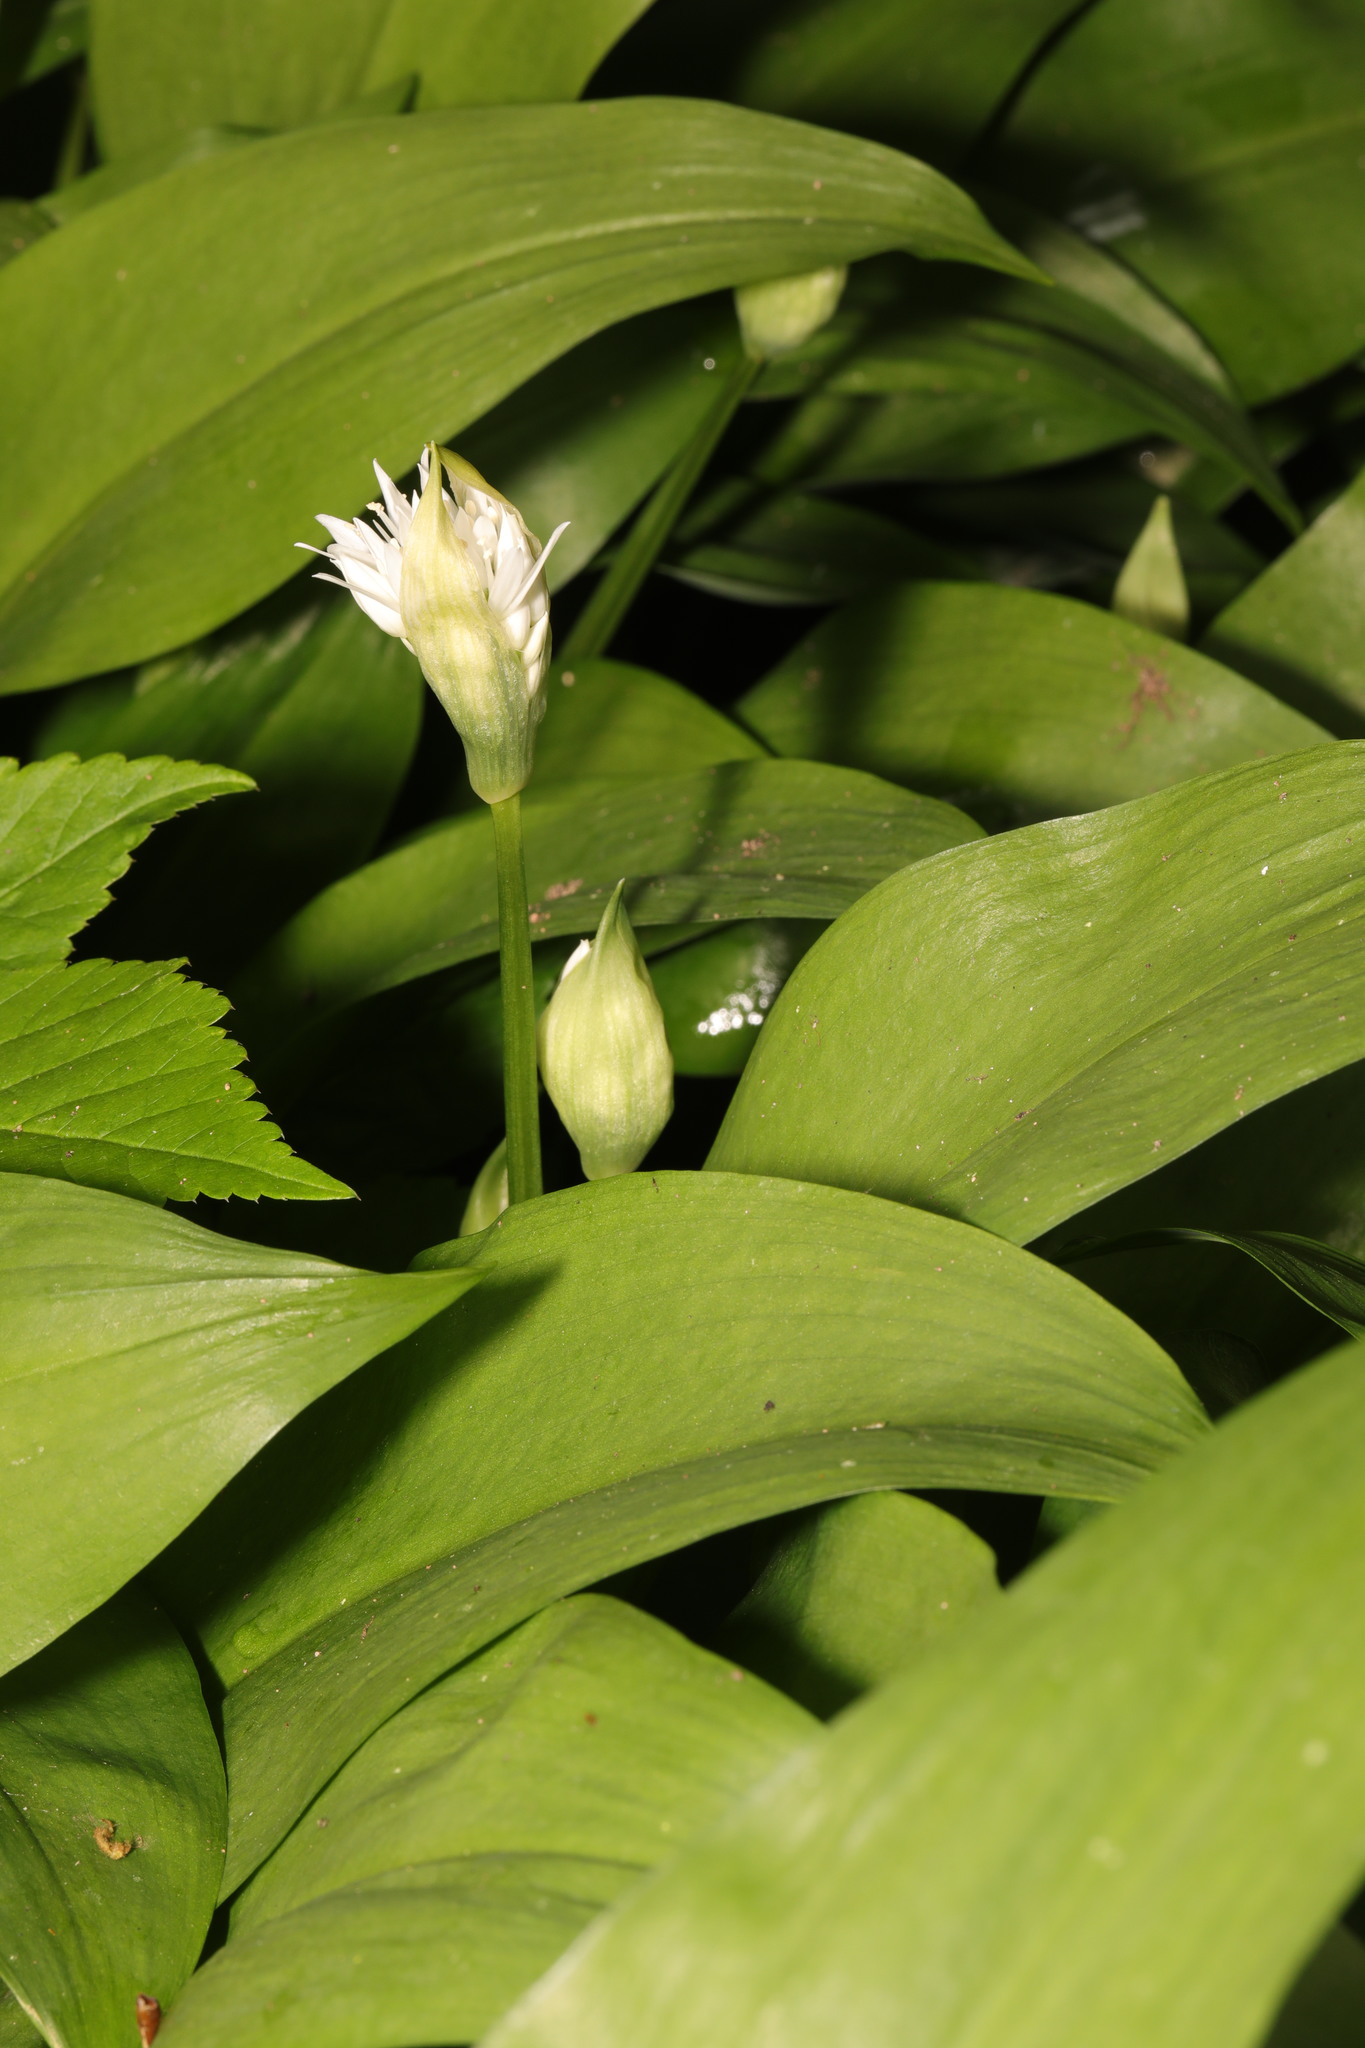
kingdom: Plantae
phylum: Tracheophyta
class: Liliopsida
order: Asparagales
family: Amaryllidaceae
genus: Allium
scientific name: Allium ursinum
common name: Ramsons
